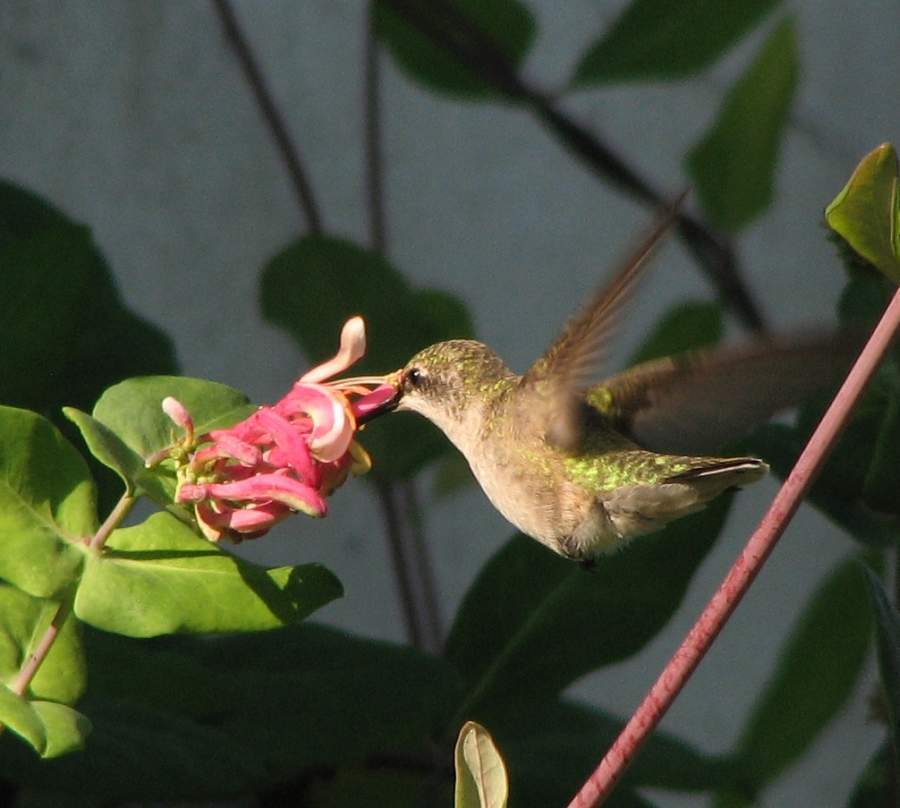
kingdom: Animalia
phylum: Chordata
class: Aves
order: Apodiformes
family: Trochilidae
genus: Archilochus
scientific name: Archilochus colubris
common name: Ruby-throated hummingbird
